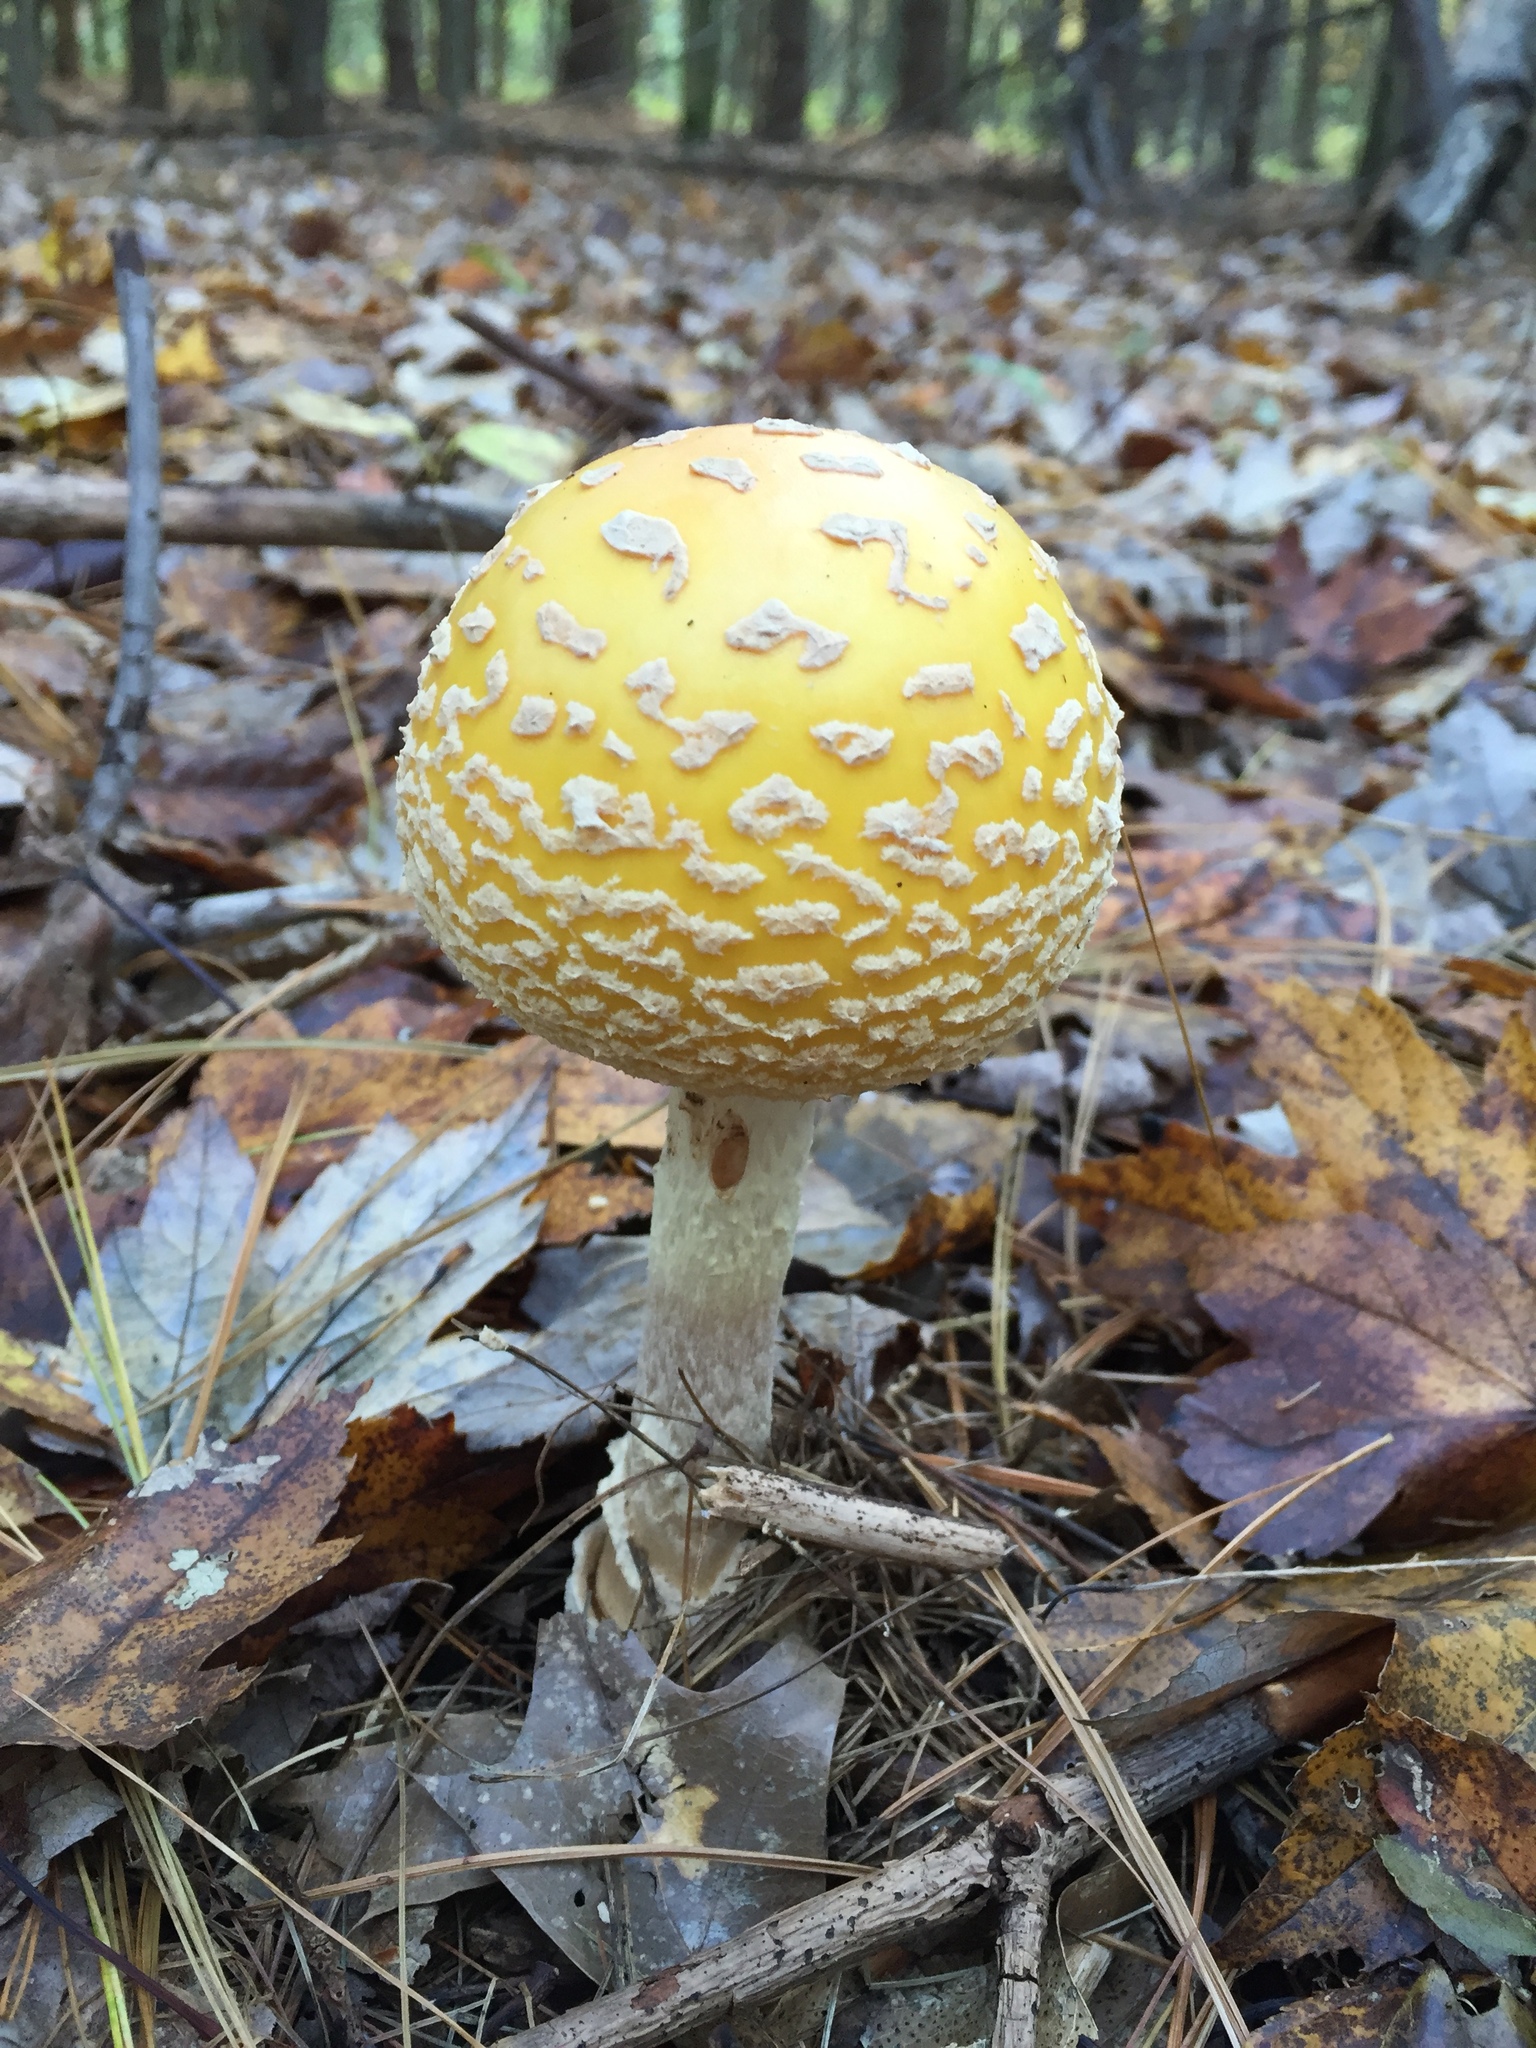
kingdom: Fungi
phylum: Basidiomycota
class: Agaricomycetes
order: Agaricales
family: Amanitaceae
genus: Amanita
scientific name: Amanita muscaria
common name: Fly agaric
